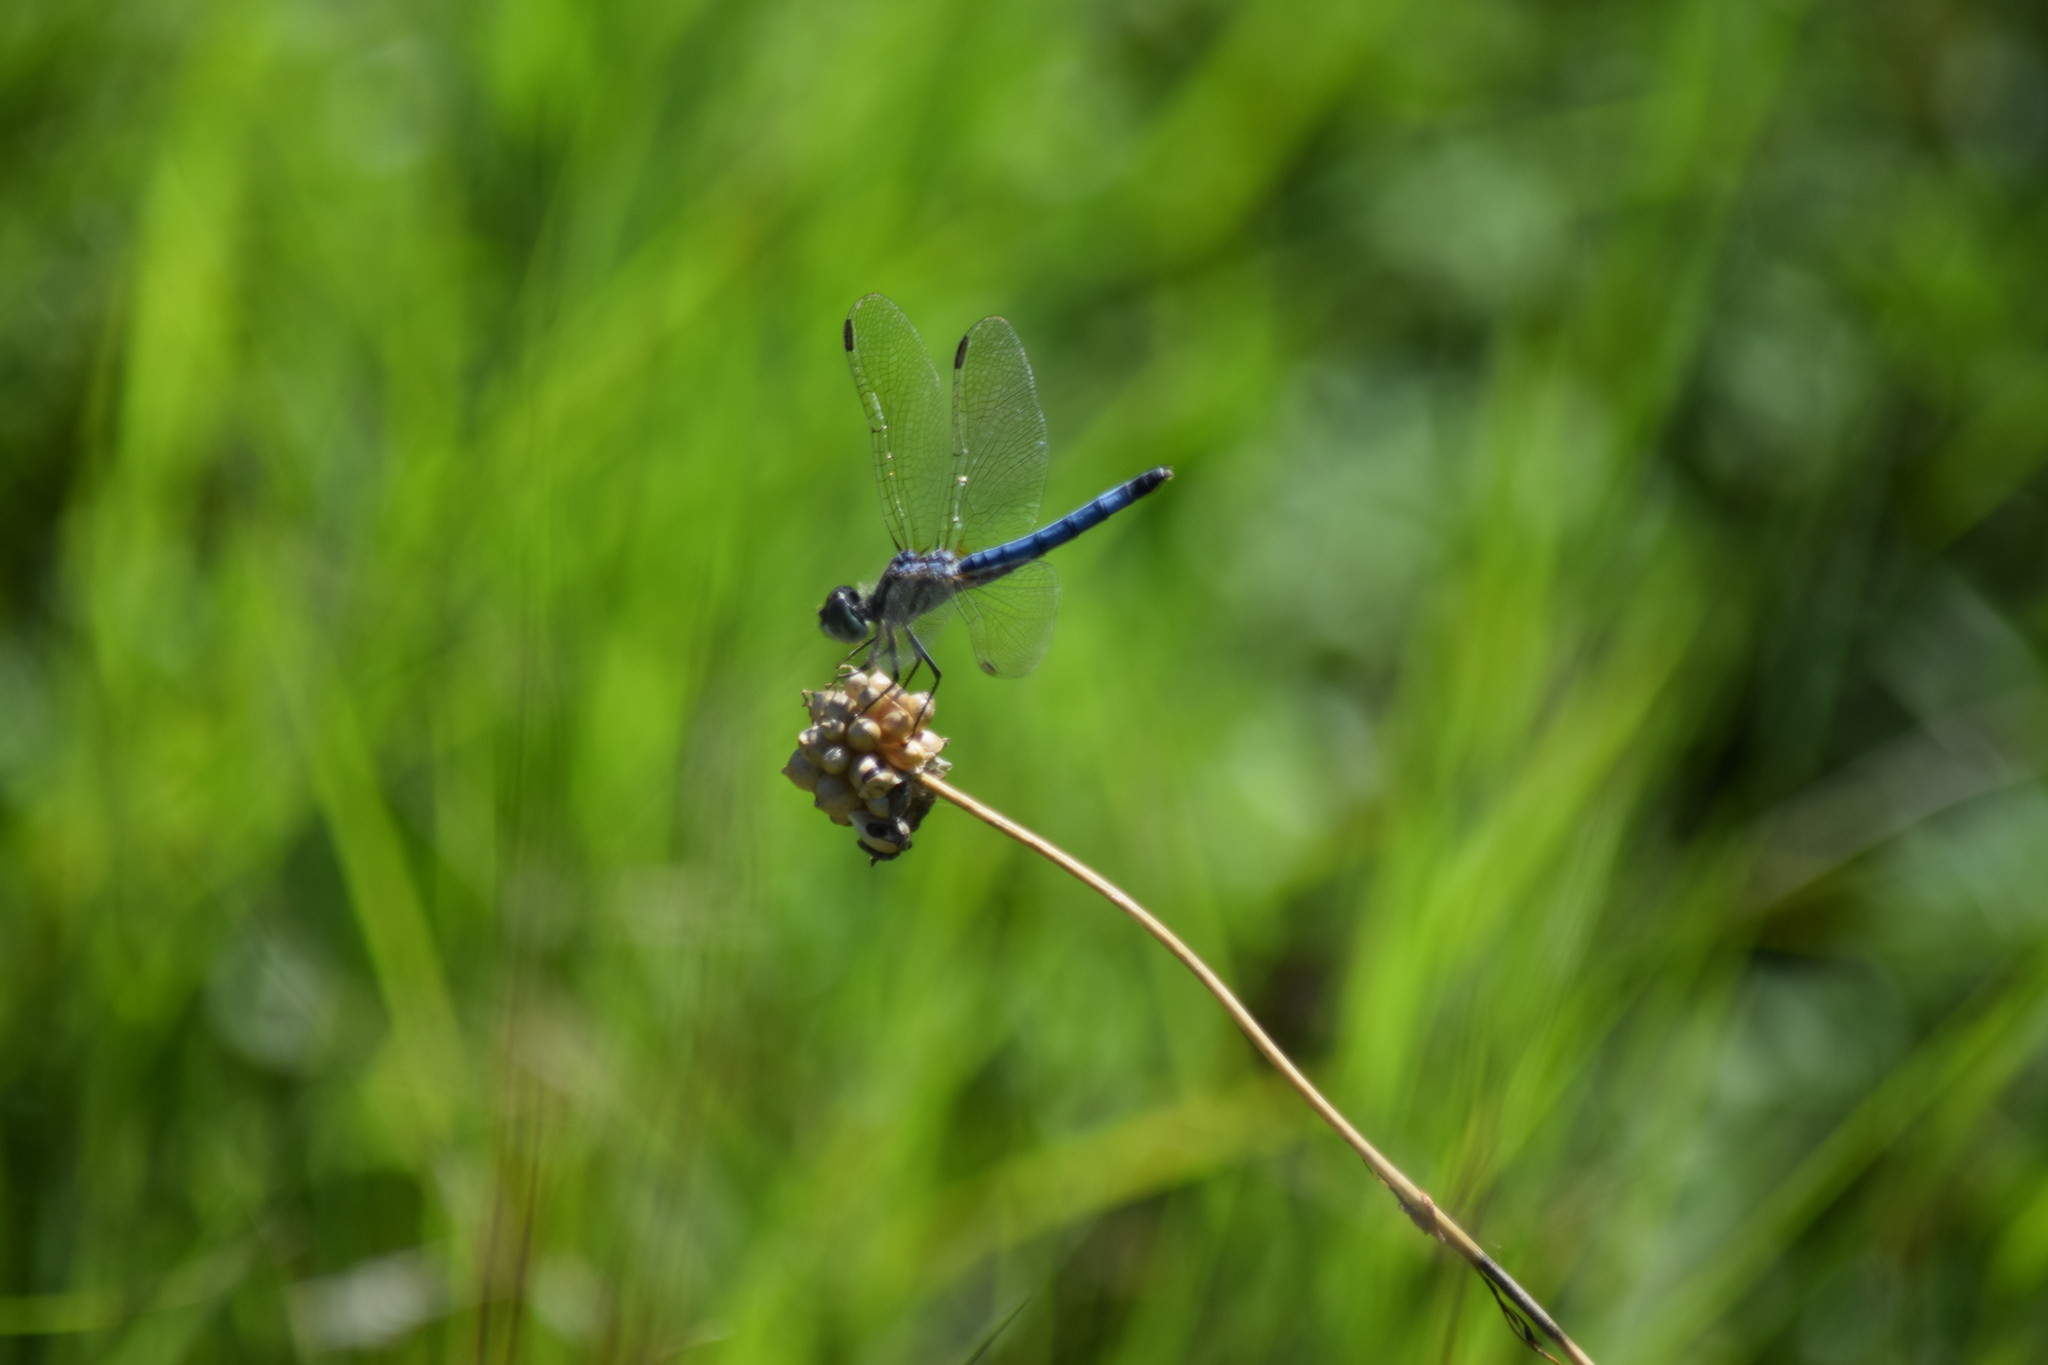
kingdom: Animalia
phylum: Arthropoda
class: Insecta
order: Odonata
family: Libellulidae
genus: Pachydiplax
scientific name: Pachydiplax longipennis
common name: Blue dasher
